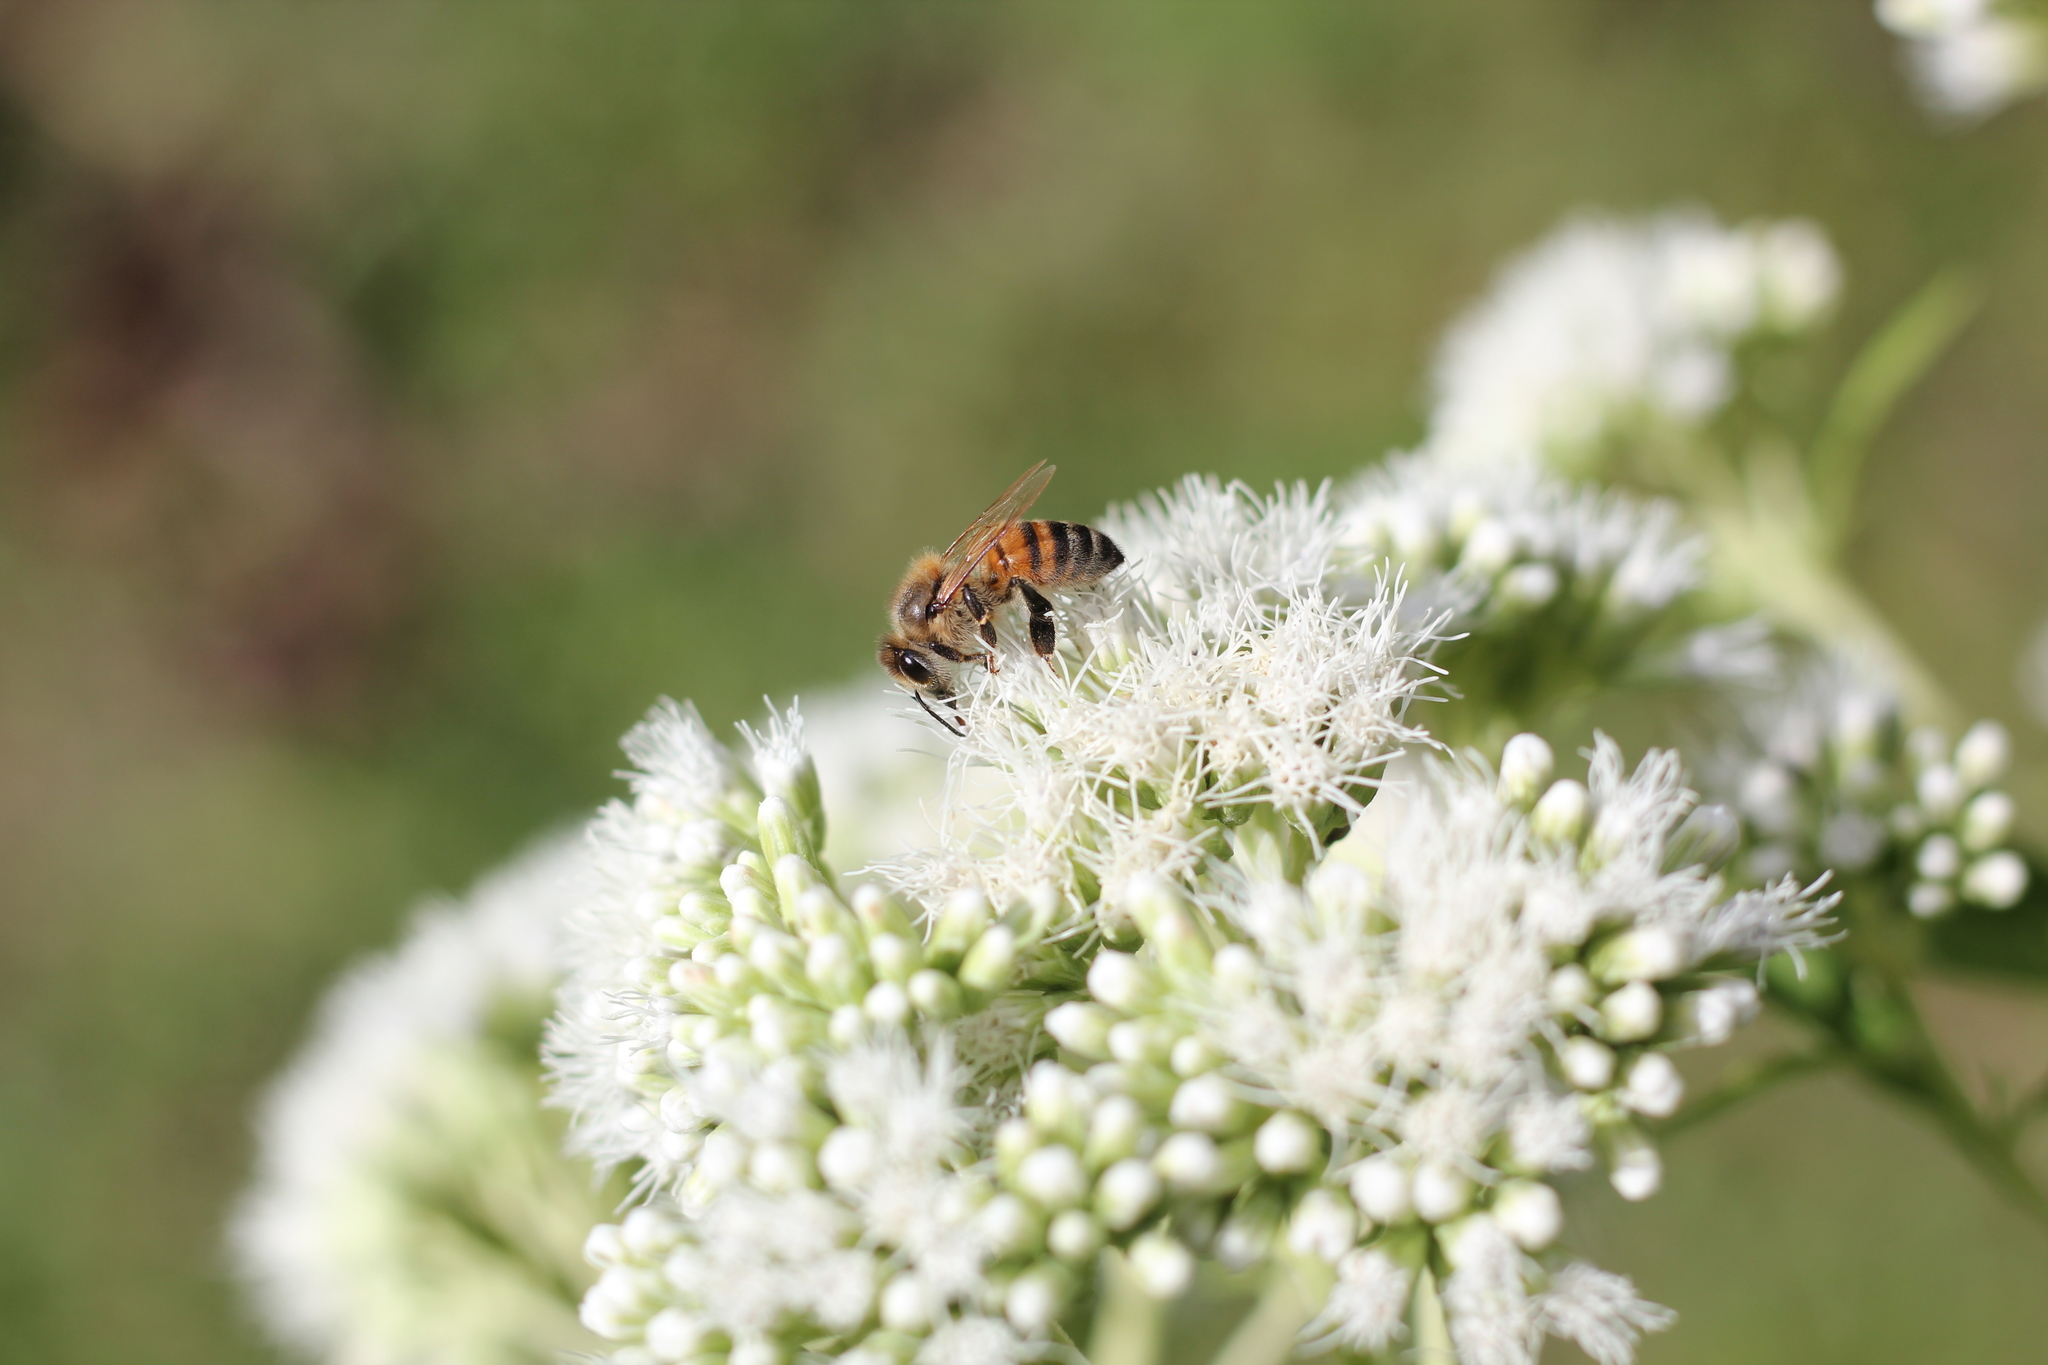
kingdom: Animalia
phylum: Arthropoda
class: Insecta
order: Hymenoptera
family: Apidae
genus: Apis
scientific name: Apis mellifera
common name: Honey bee
